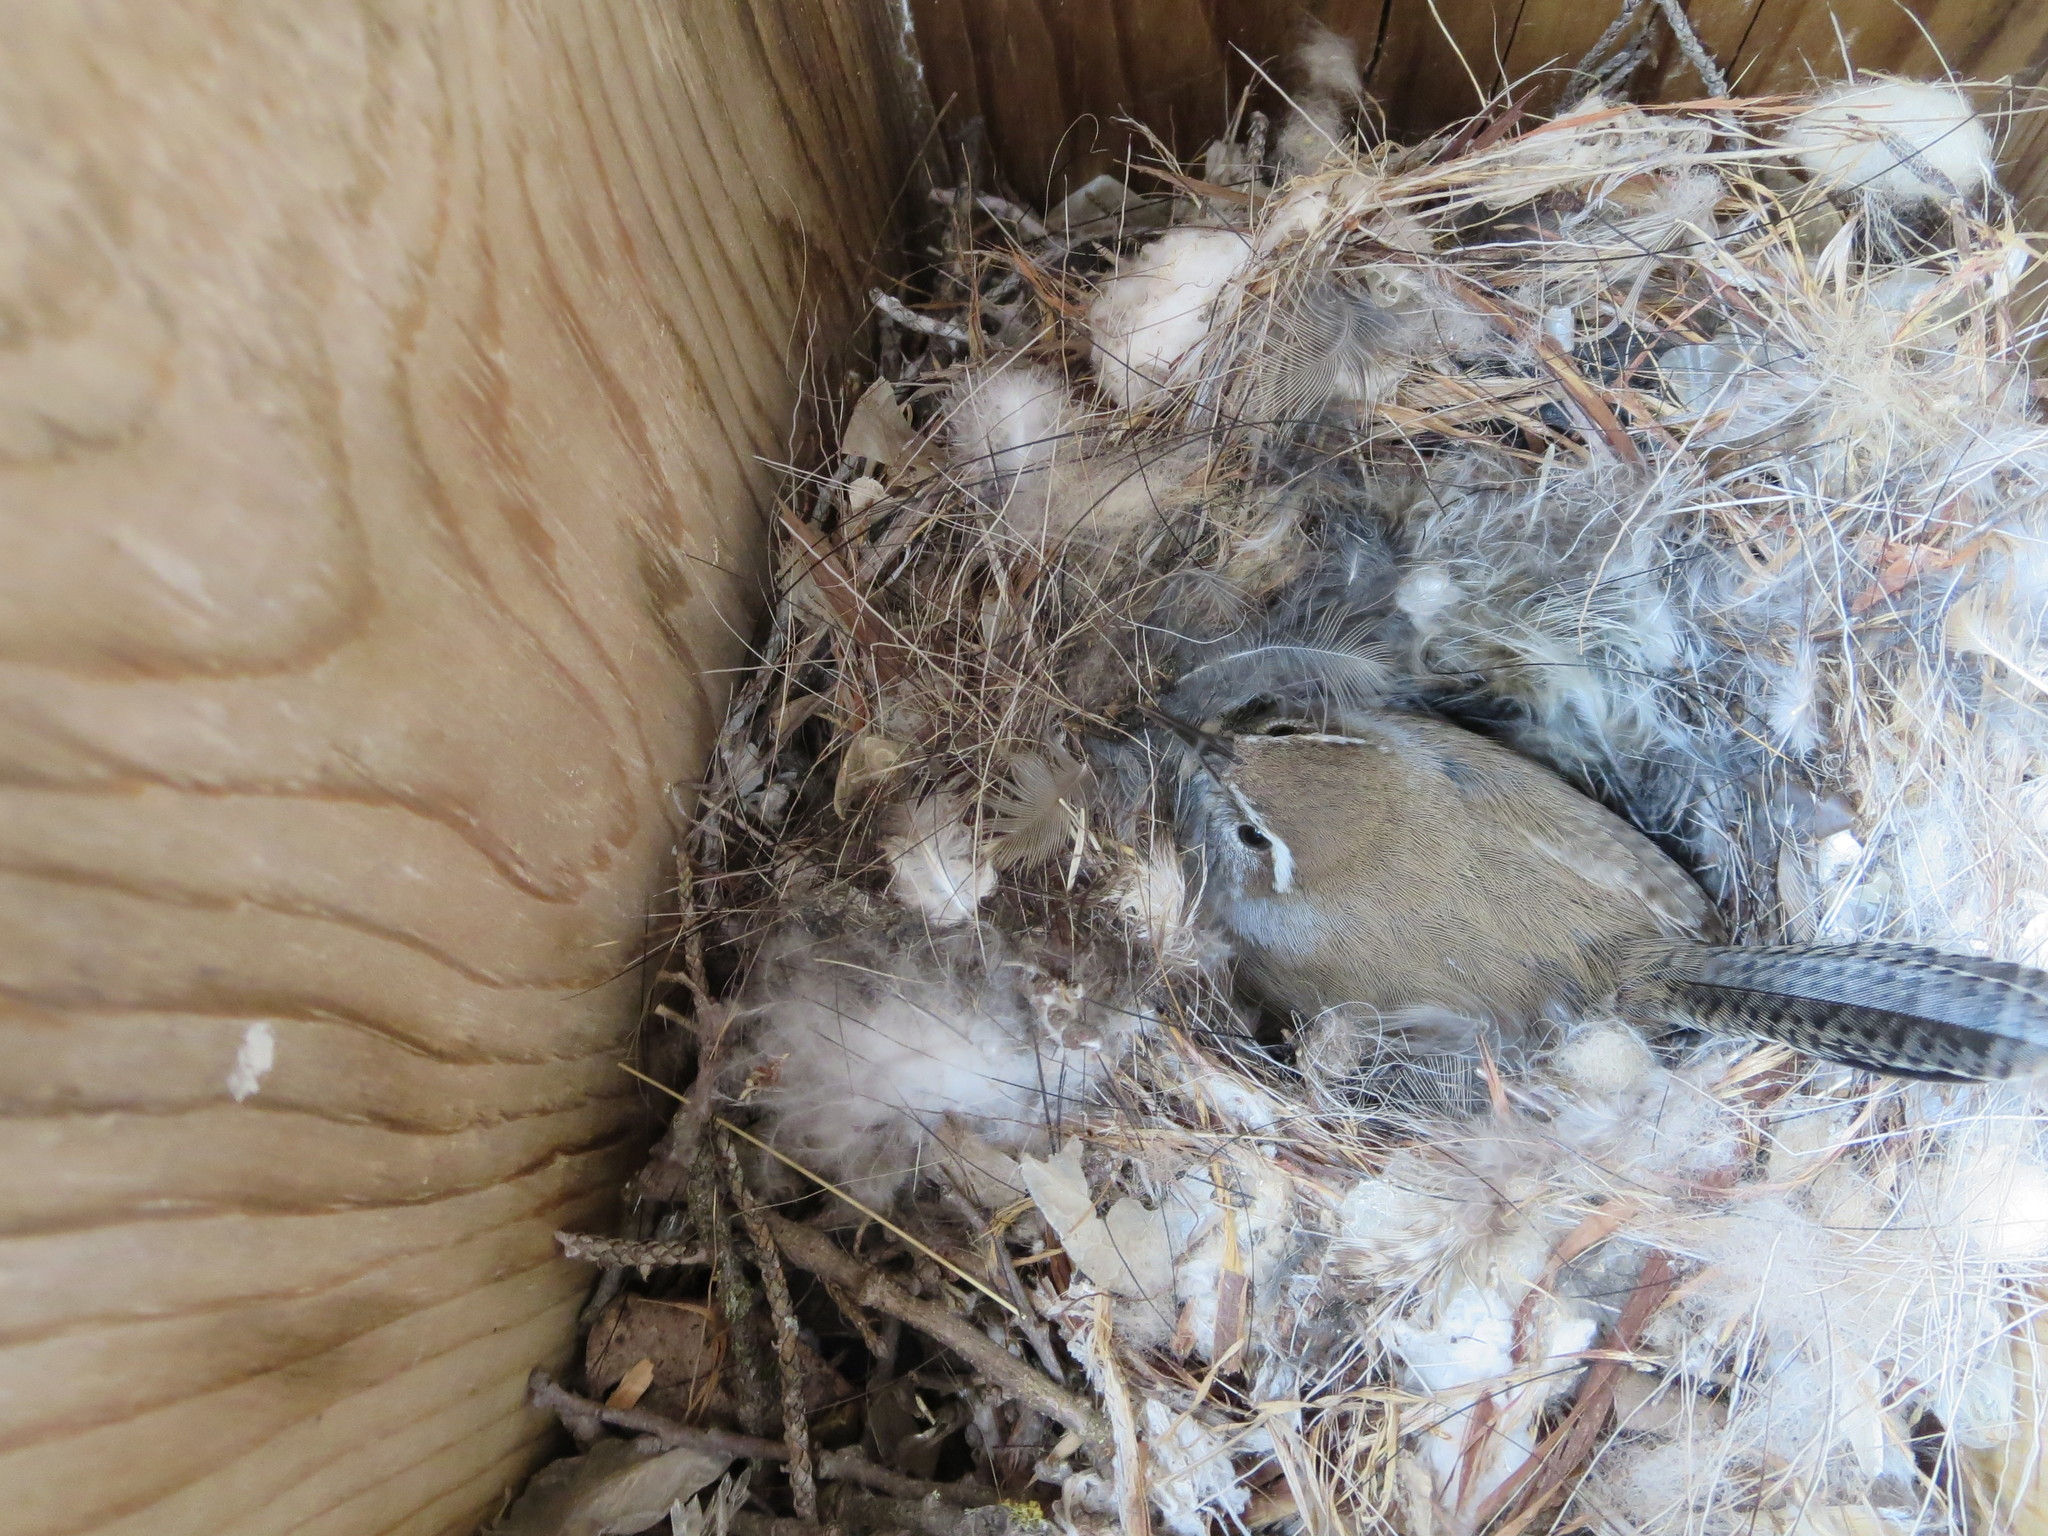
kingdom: Animalia
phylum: Chordata
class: Aves
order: Passeriformes
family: Troglodytidae
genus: Thryomanes
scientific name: Thryomanes bewickii
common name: Bewick's wren
